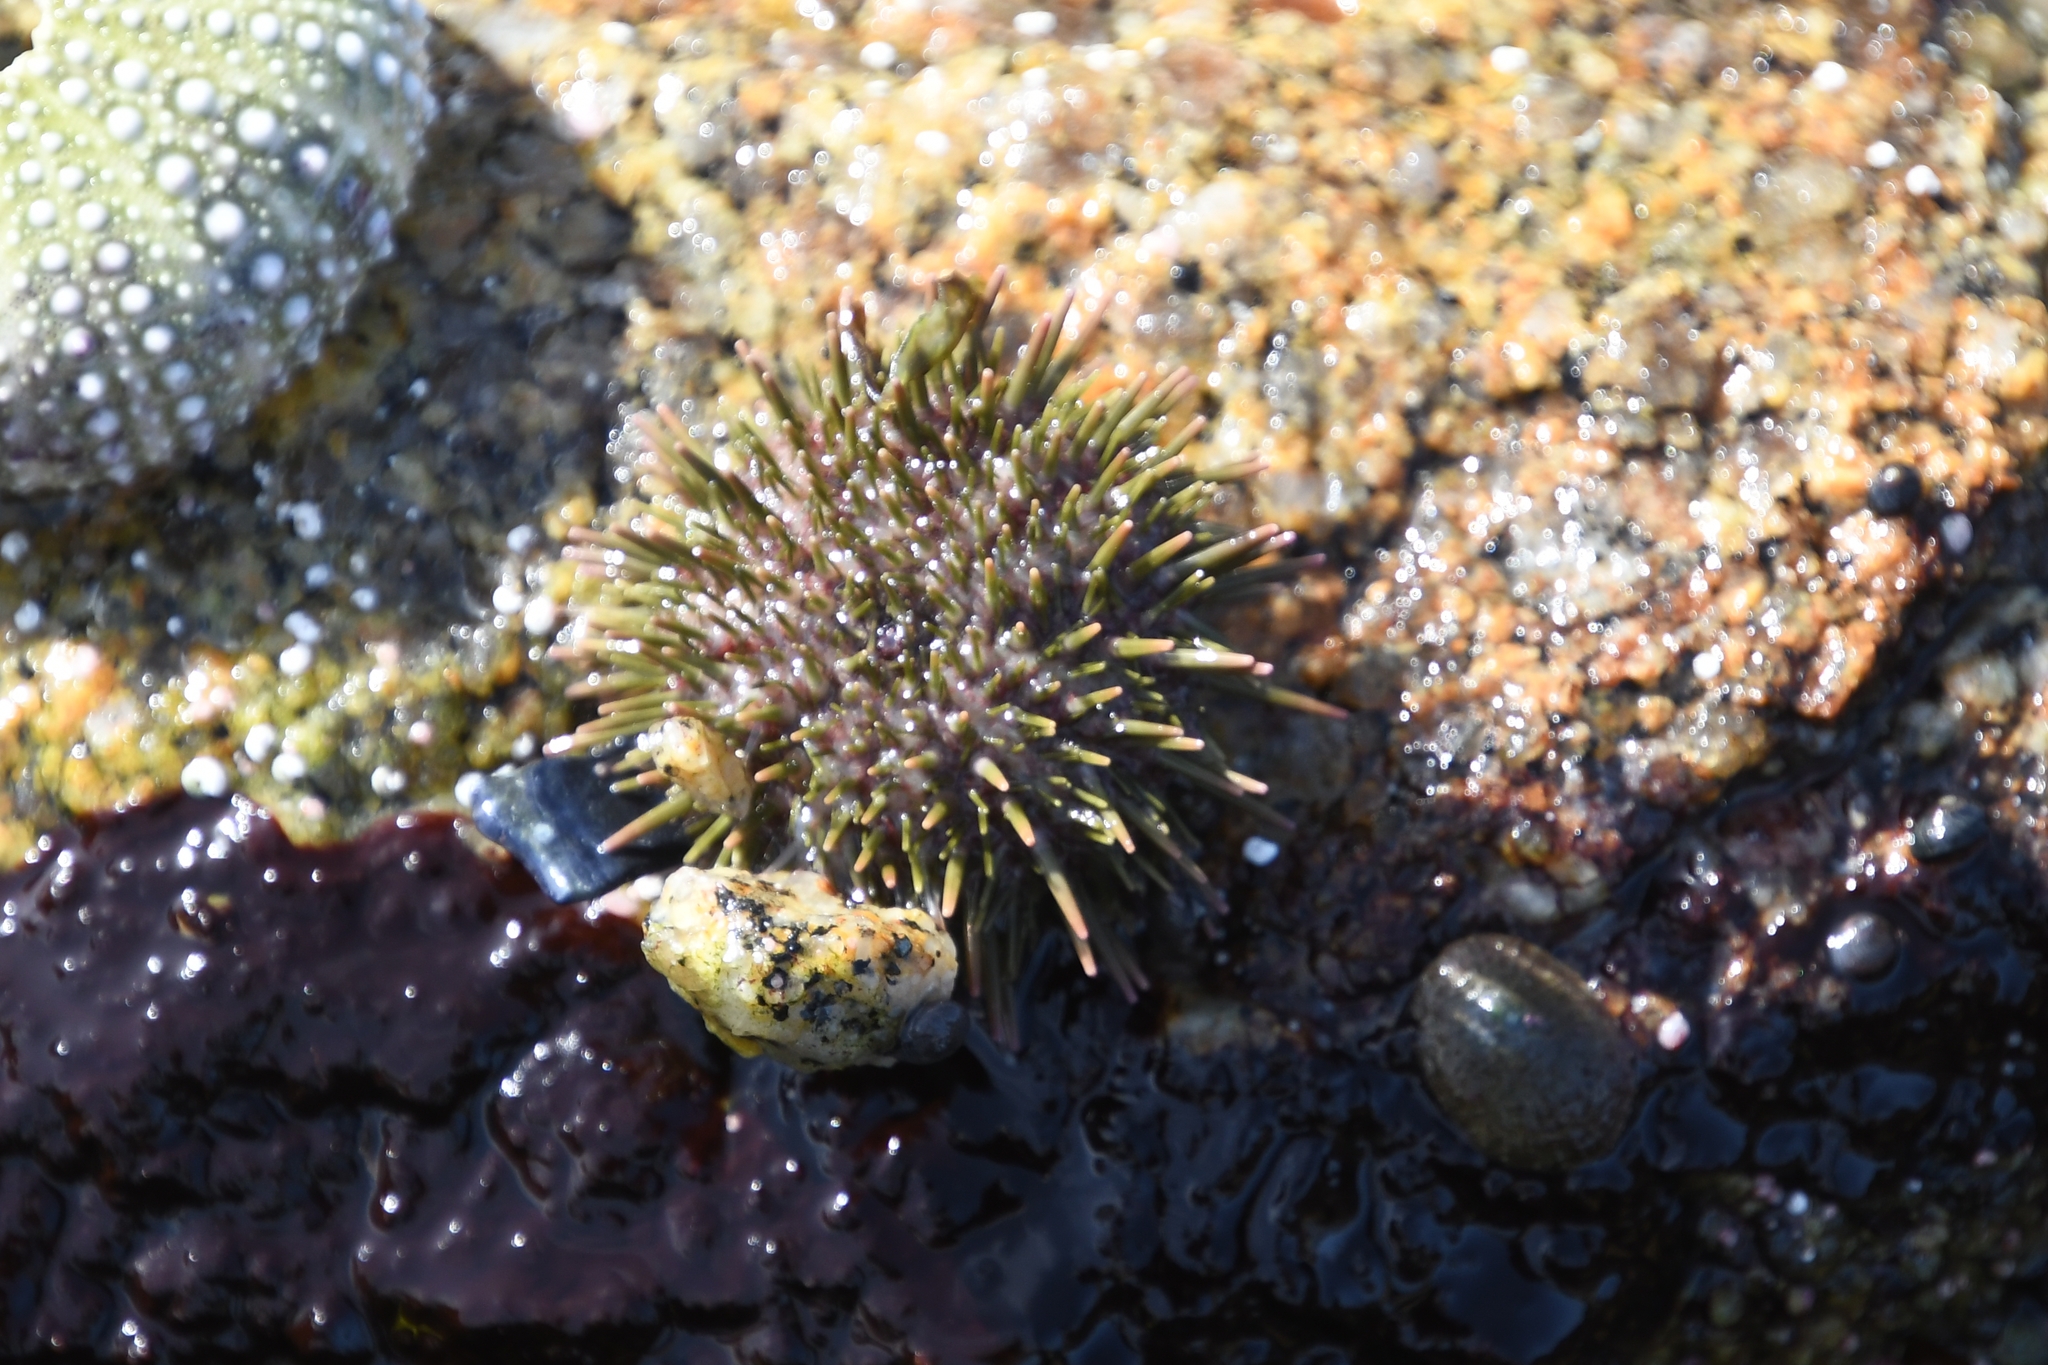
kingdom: Animalia
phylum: Echinodermata
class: Echinoidea
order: Camarodonta
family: Strongylocentrotidae
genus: Strongylocentrotus
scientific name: Strongylocentrotus purpuratus
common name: Purple sea urchin
